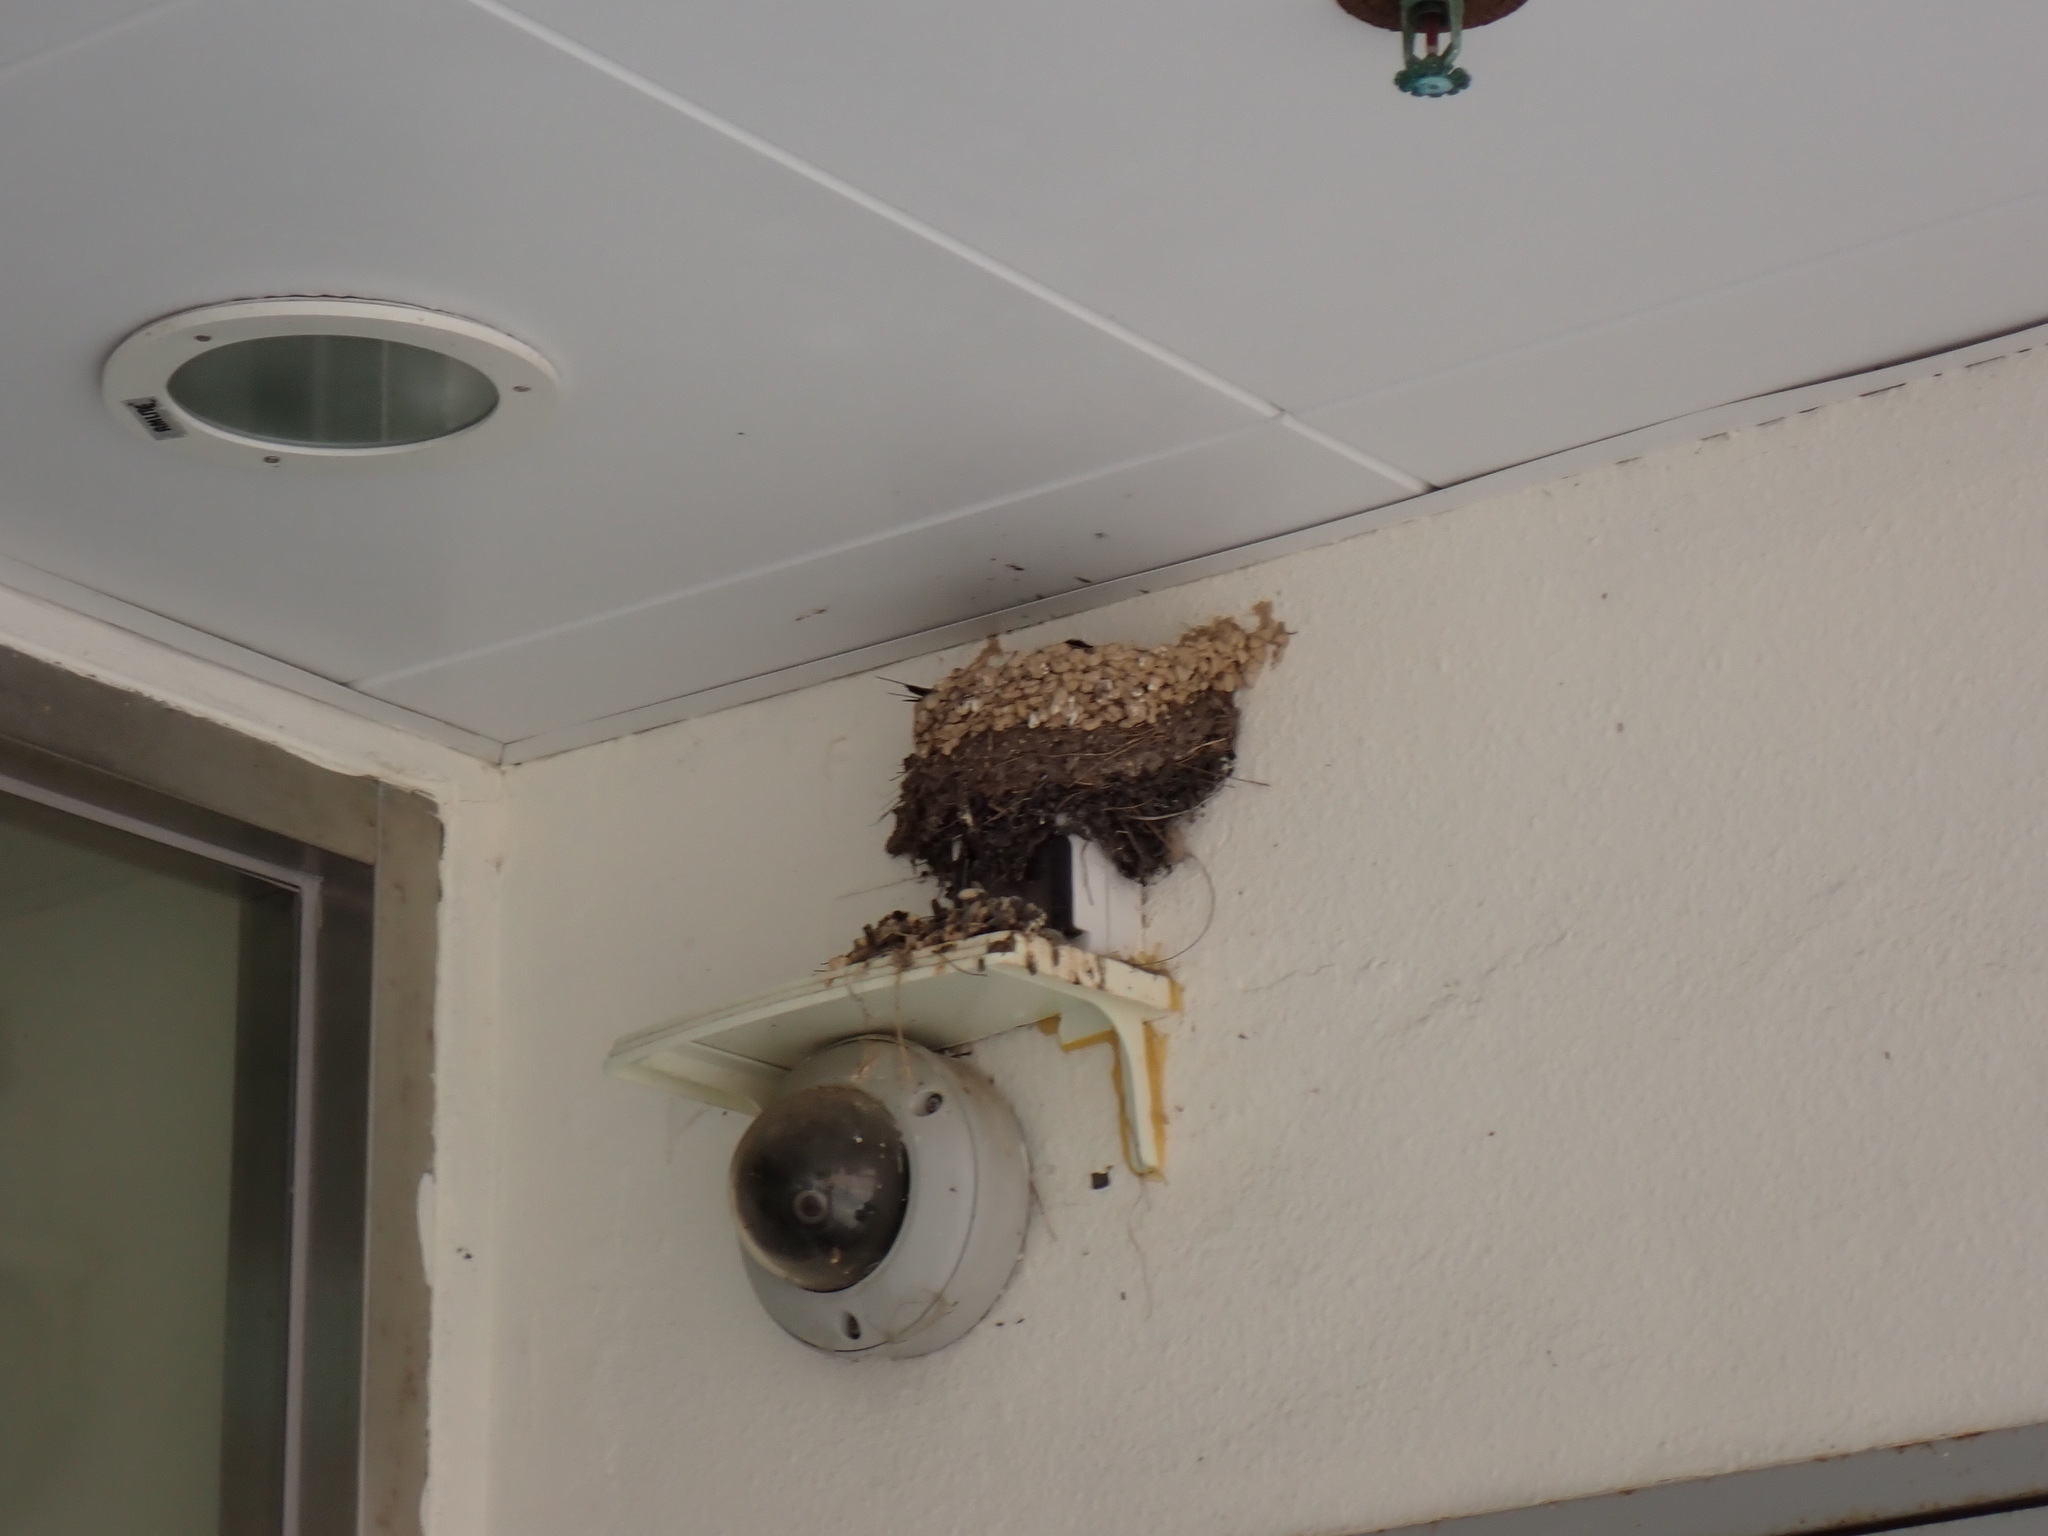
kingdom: Animalia
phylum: Chordata
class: Aves
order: Passeriformes
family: Hirundinidae
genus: Hirundo
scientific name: Hirundo rustica
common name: Barn swallow
